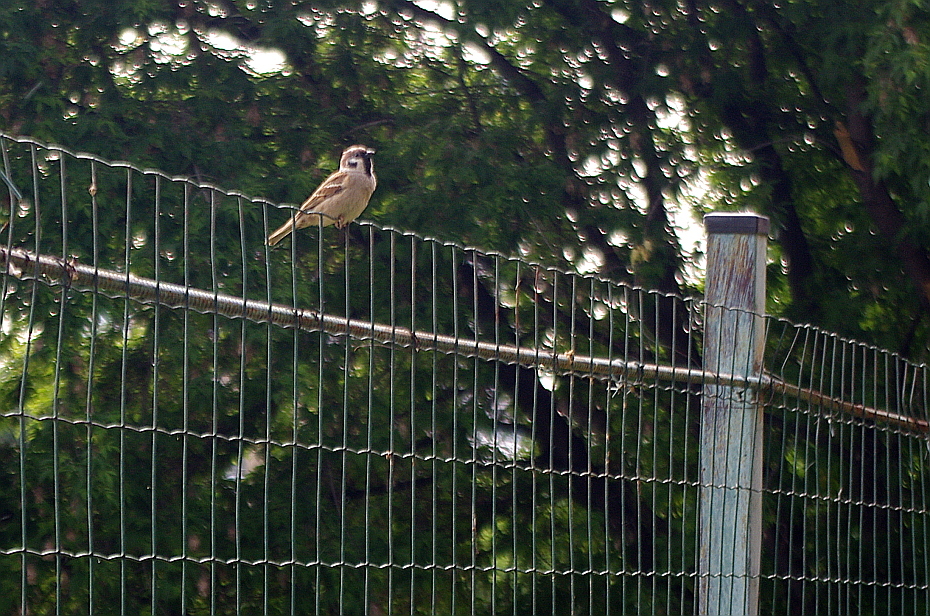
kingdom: Animalia
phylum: Chordata
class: Aves
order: Passeriformes
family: Passeridae
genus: Passer
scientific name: Passer montanus
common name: Eurasian tree sparrow
